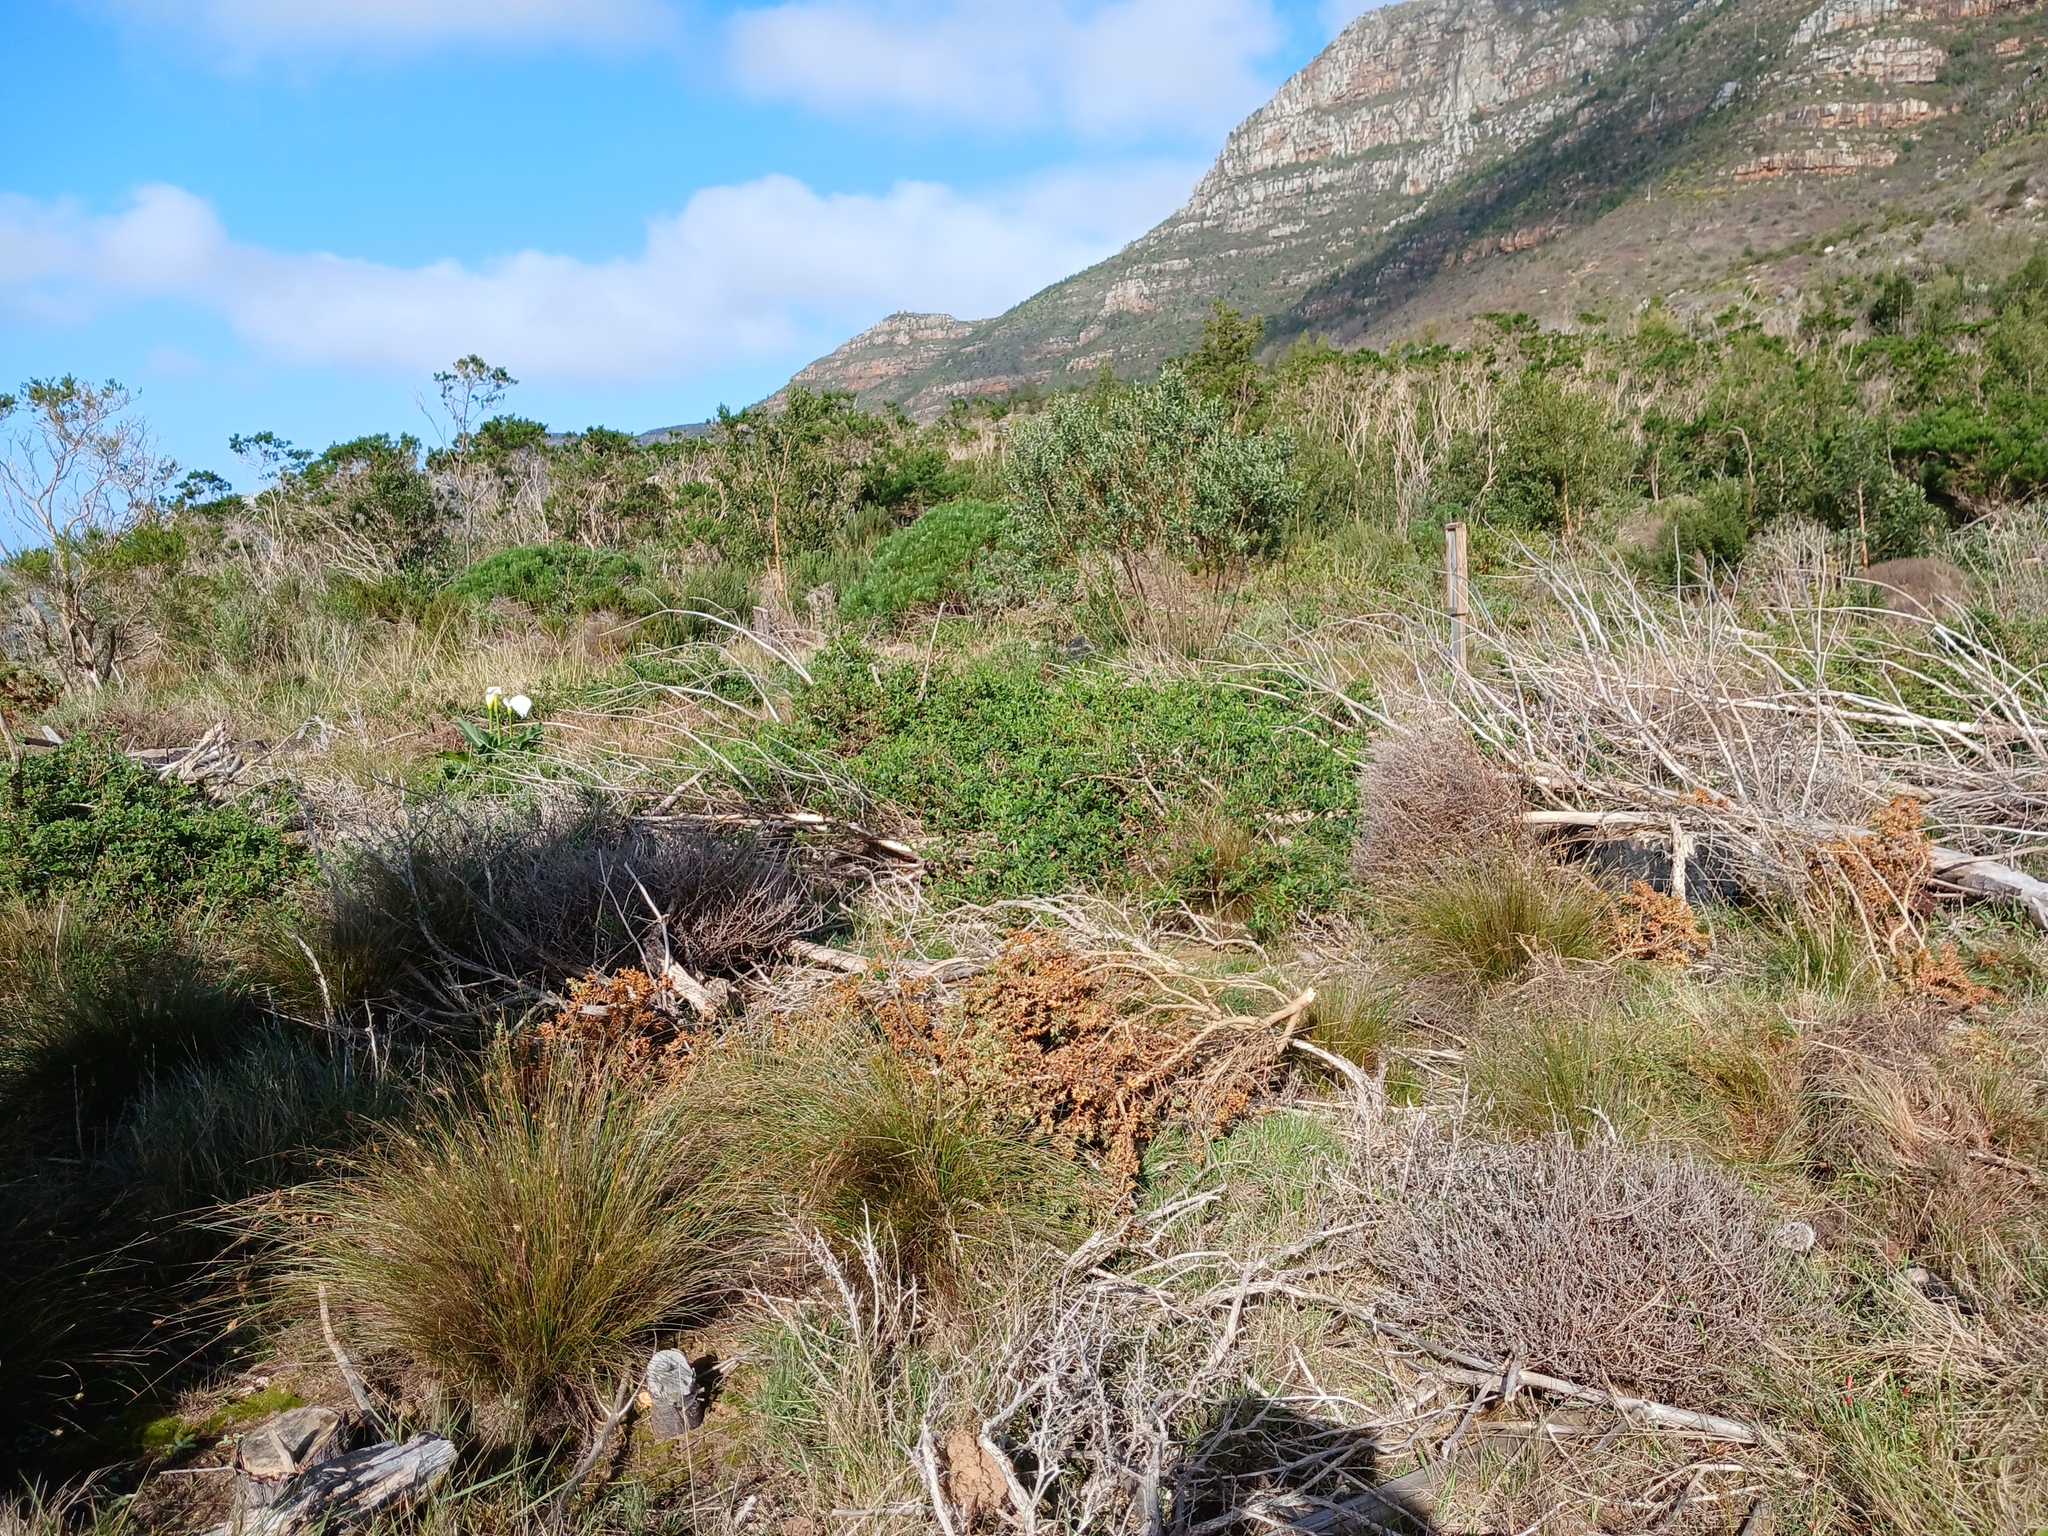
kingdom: Plantae
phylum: Tracheophyta
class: Magnoliopsida
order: Fabales
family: Fabaceae
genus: Bolusafra
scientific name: Bolusafra bituminosa
